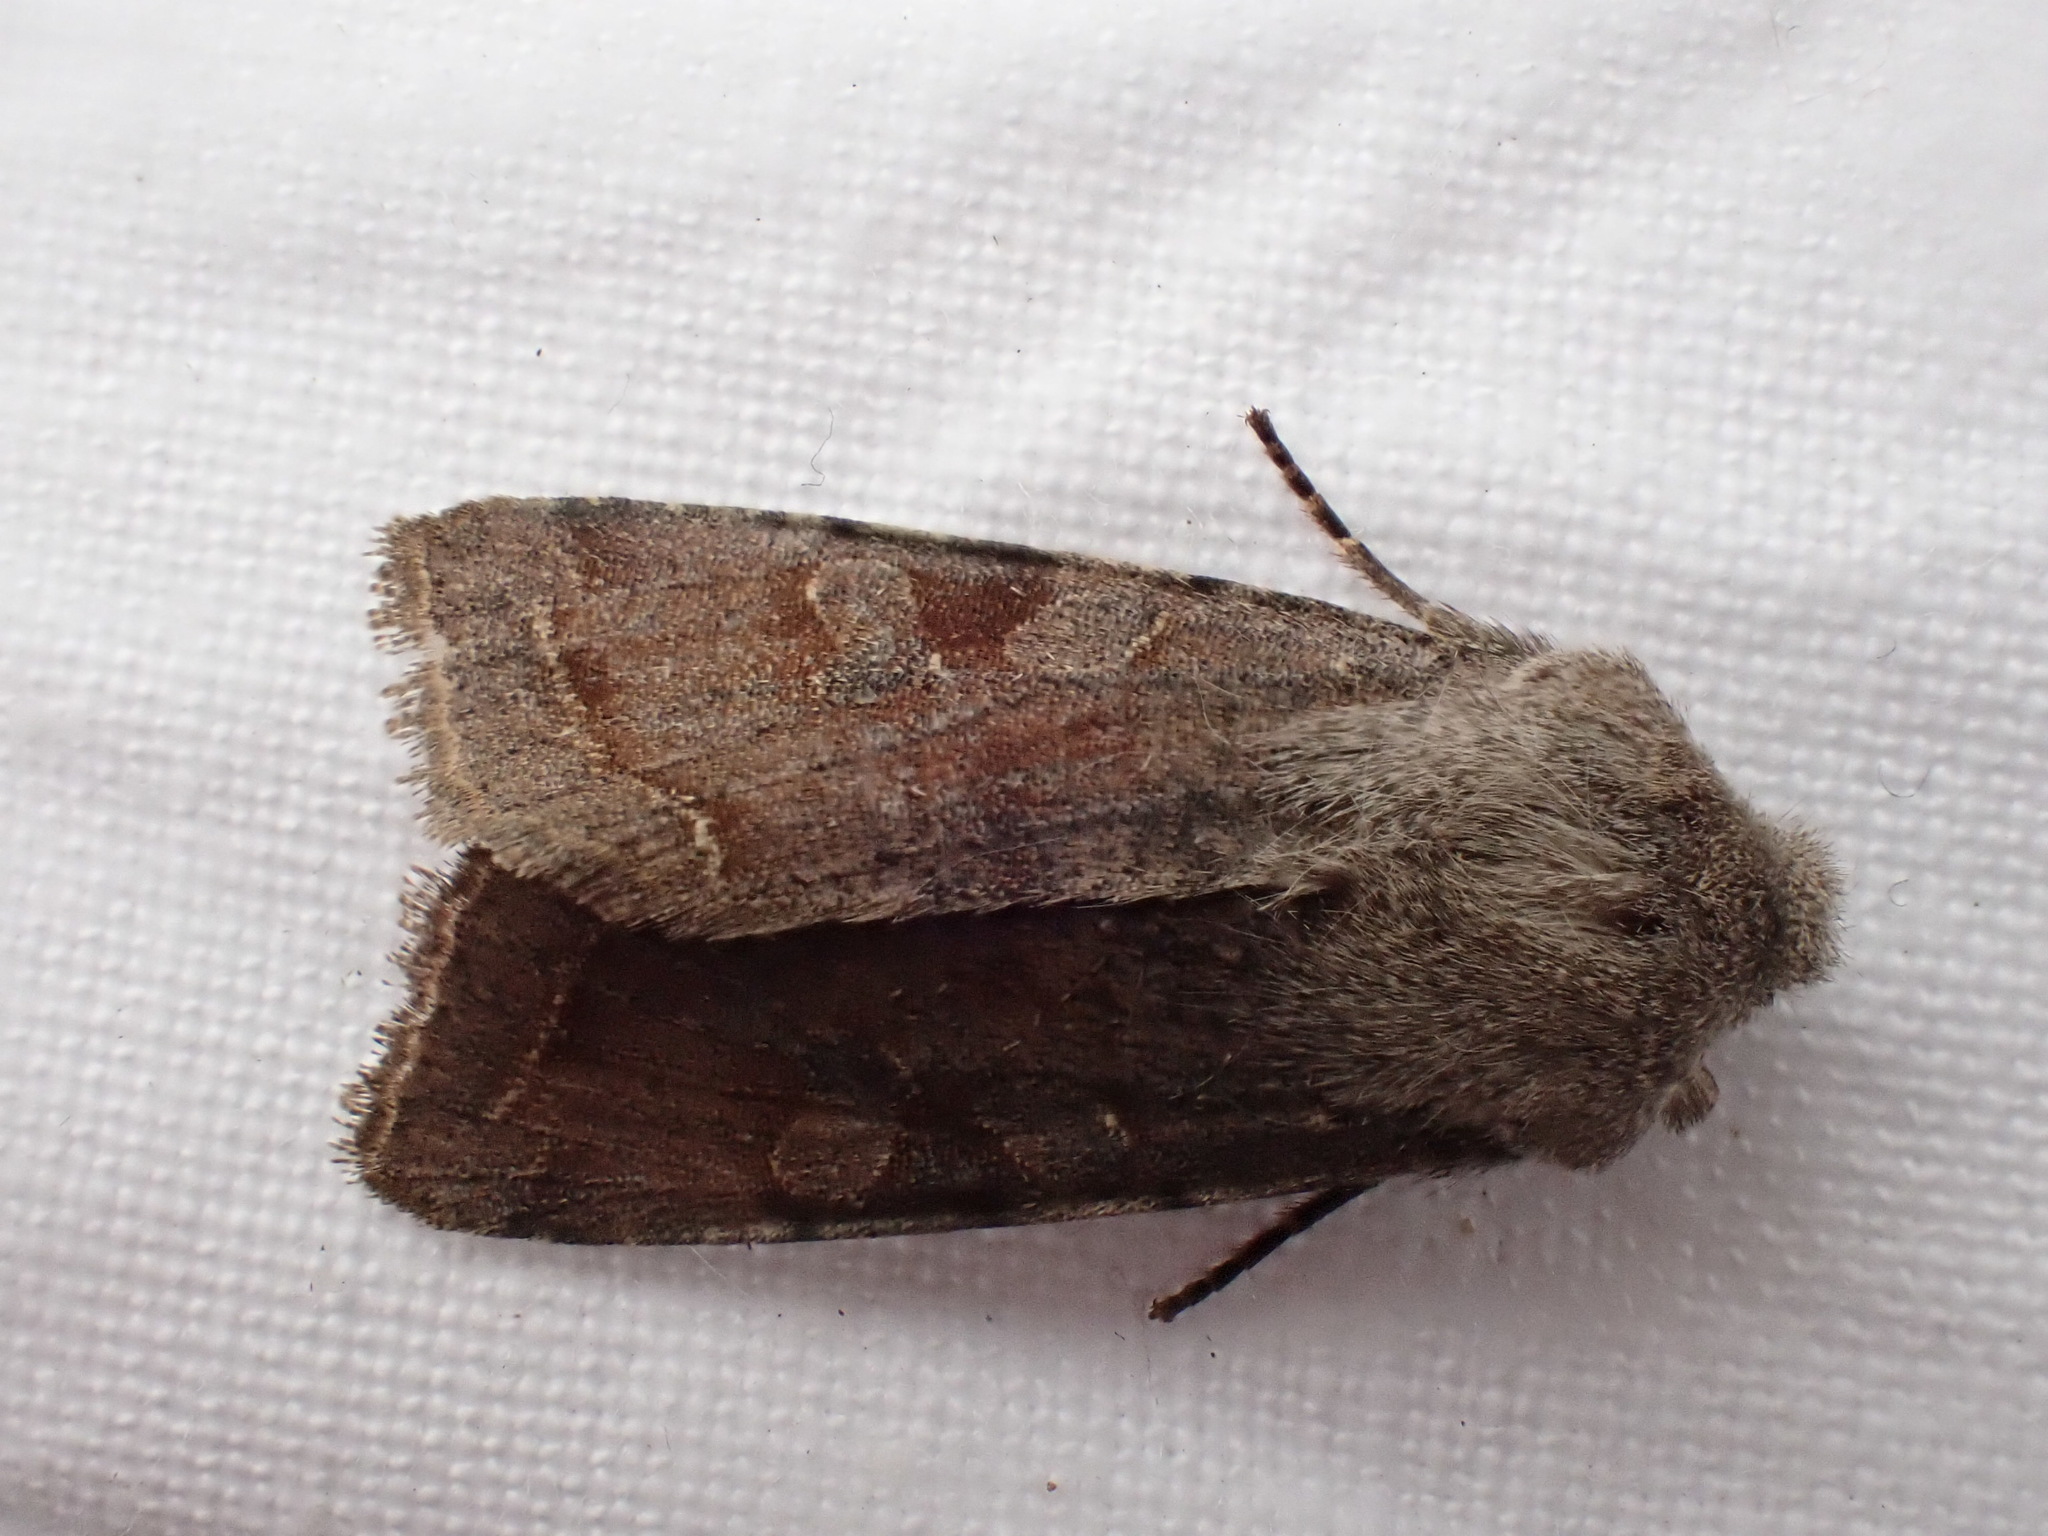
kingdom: Animalia
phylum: Arthropoda
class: Insecta
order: Lepidoptera
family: Noctuidae
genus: Orthosia
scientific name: Orthosia incerta
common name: Clouded drab
